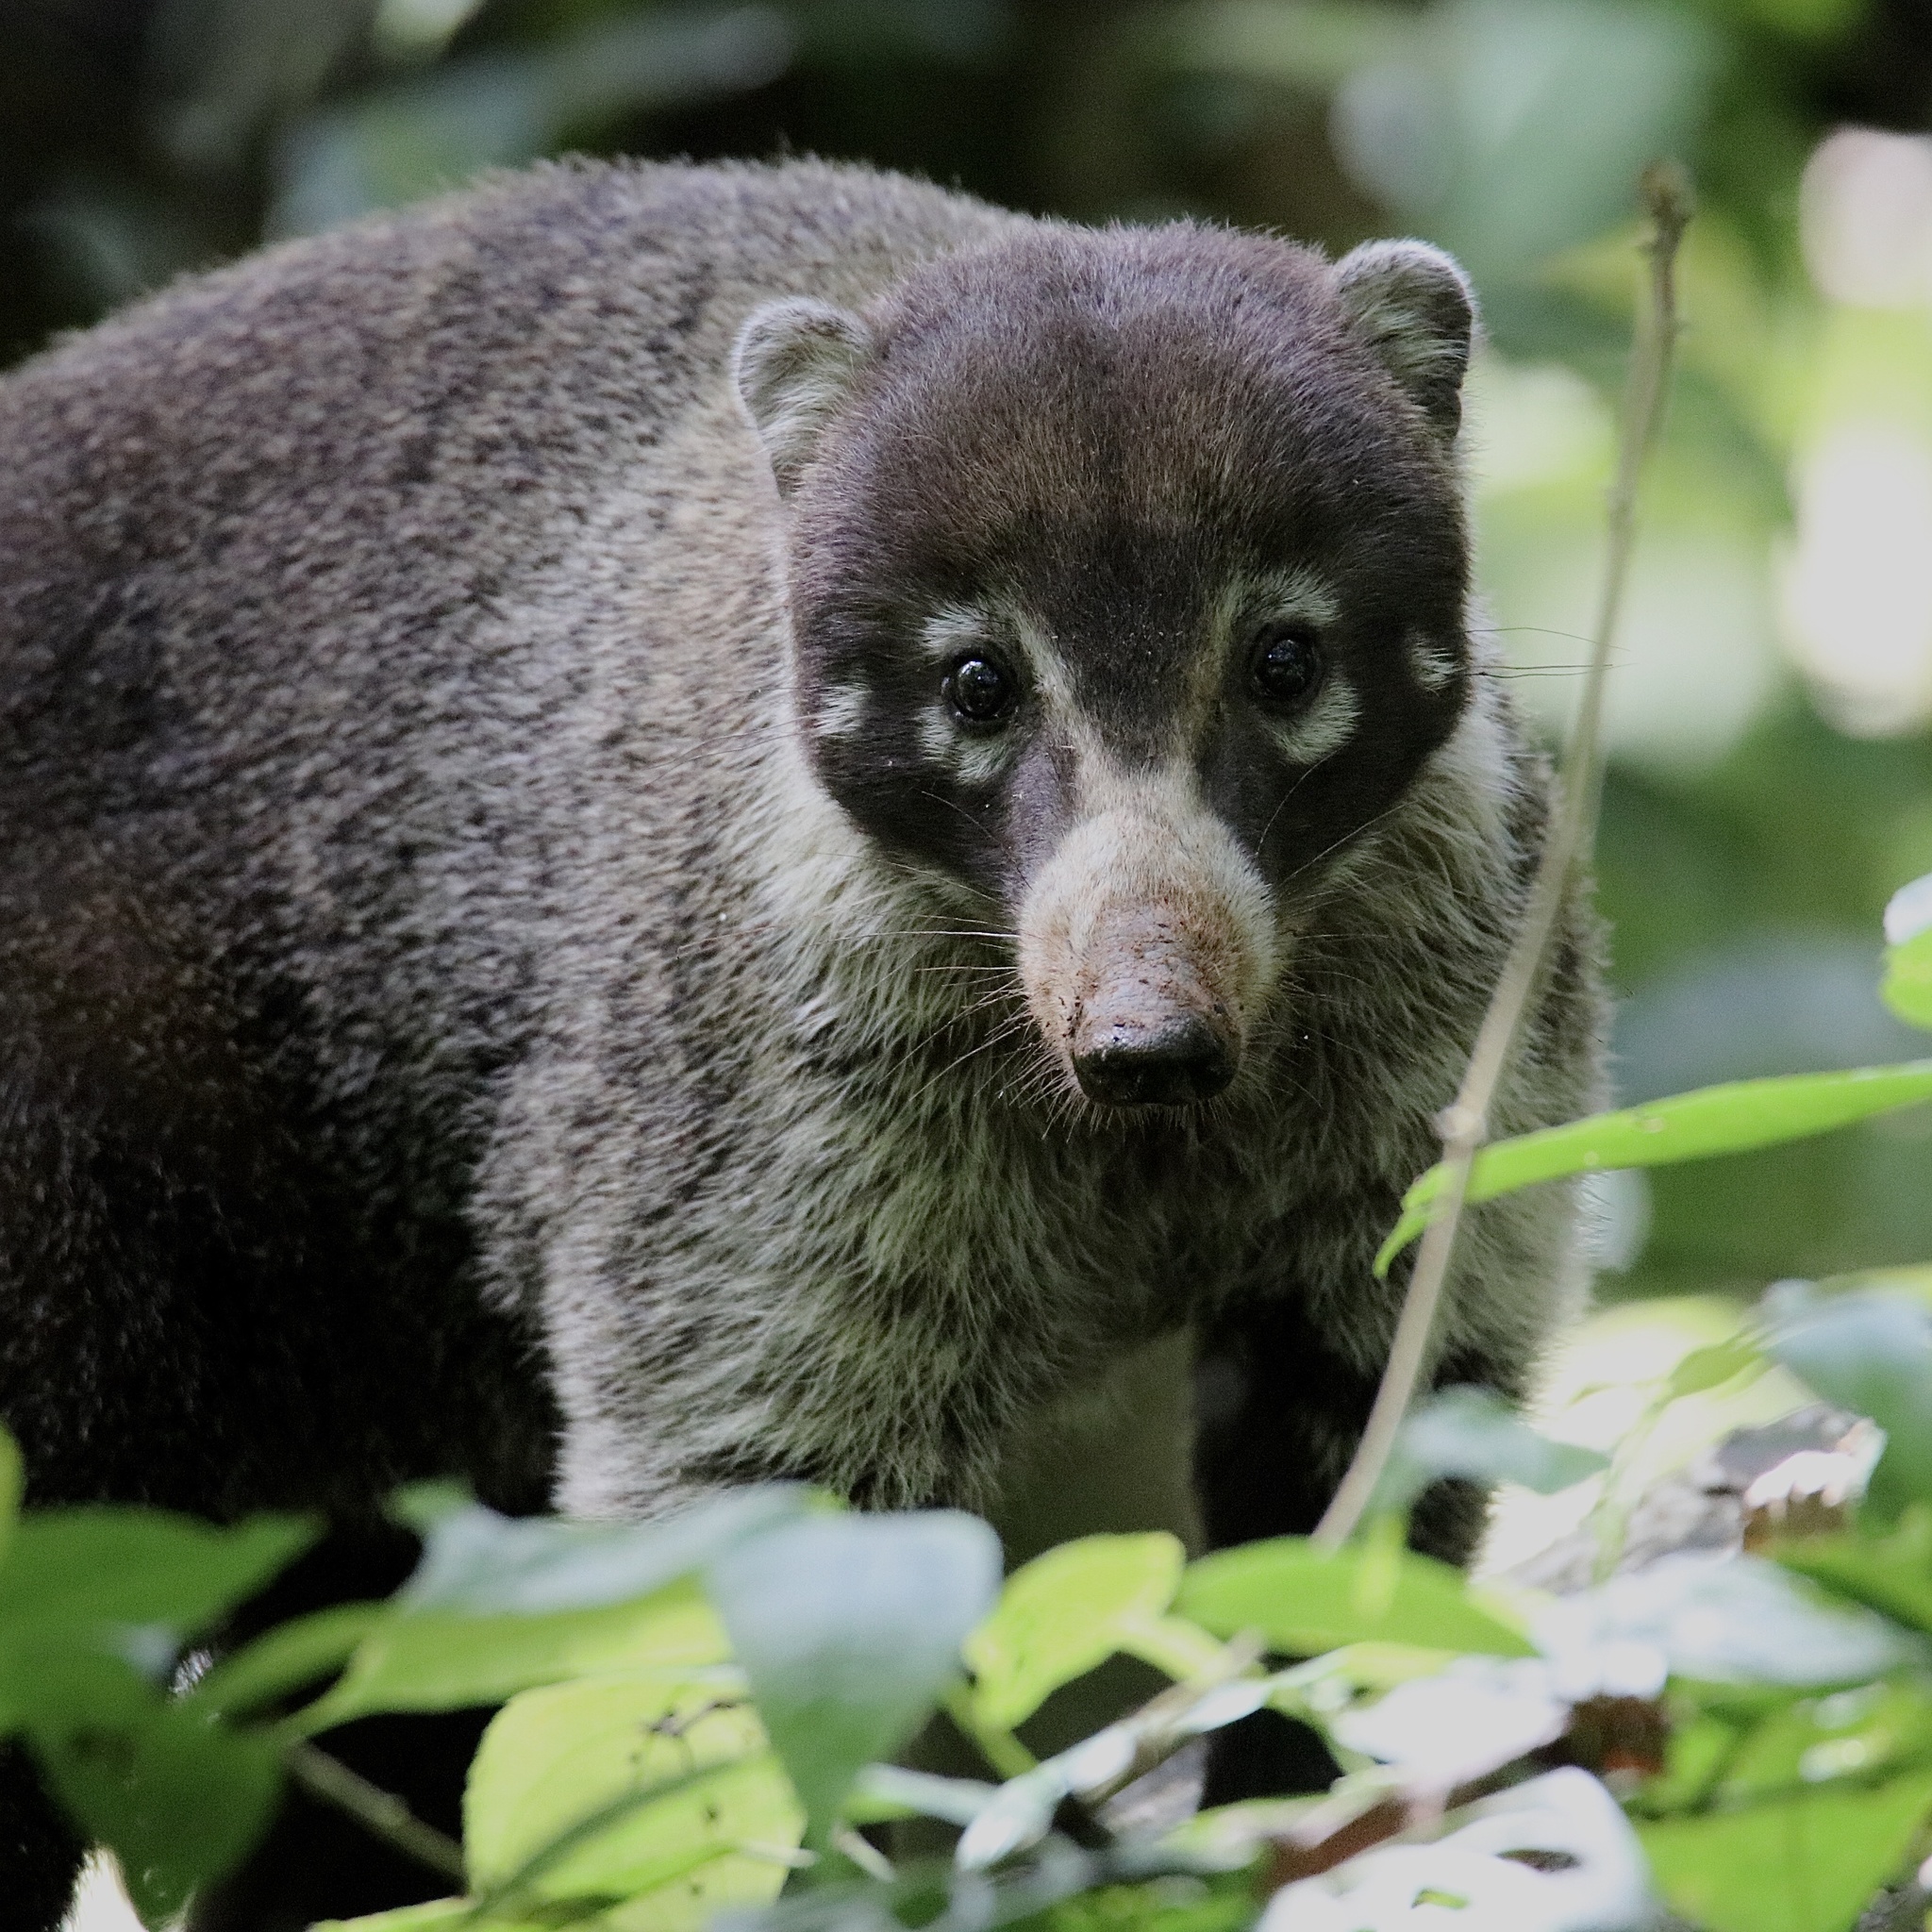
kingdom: Animalia
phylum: Chordata
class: Mammalia
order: Carnivora
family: Procyonidae
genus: Nasua
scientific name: Nasua narica
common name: White-nosed coati
